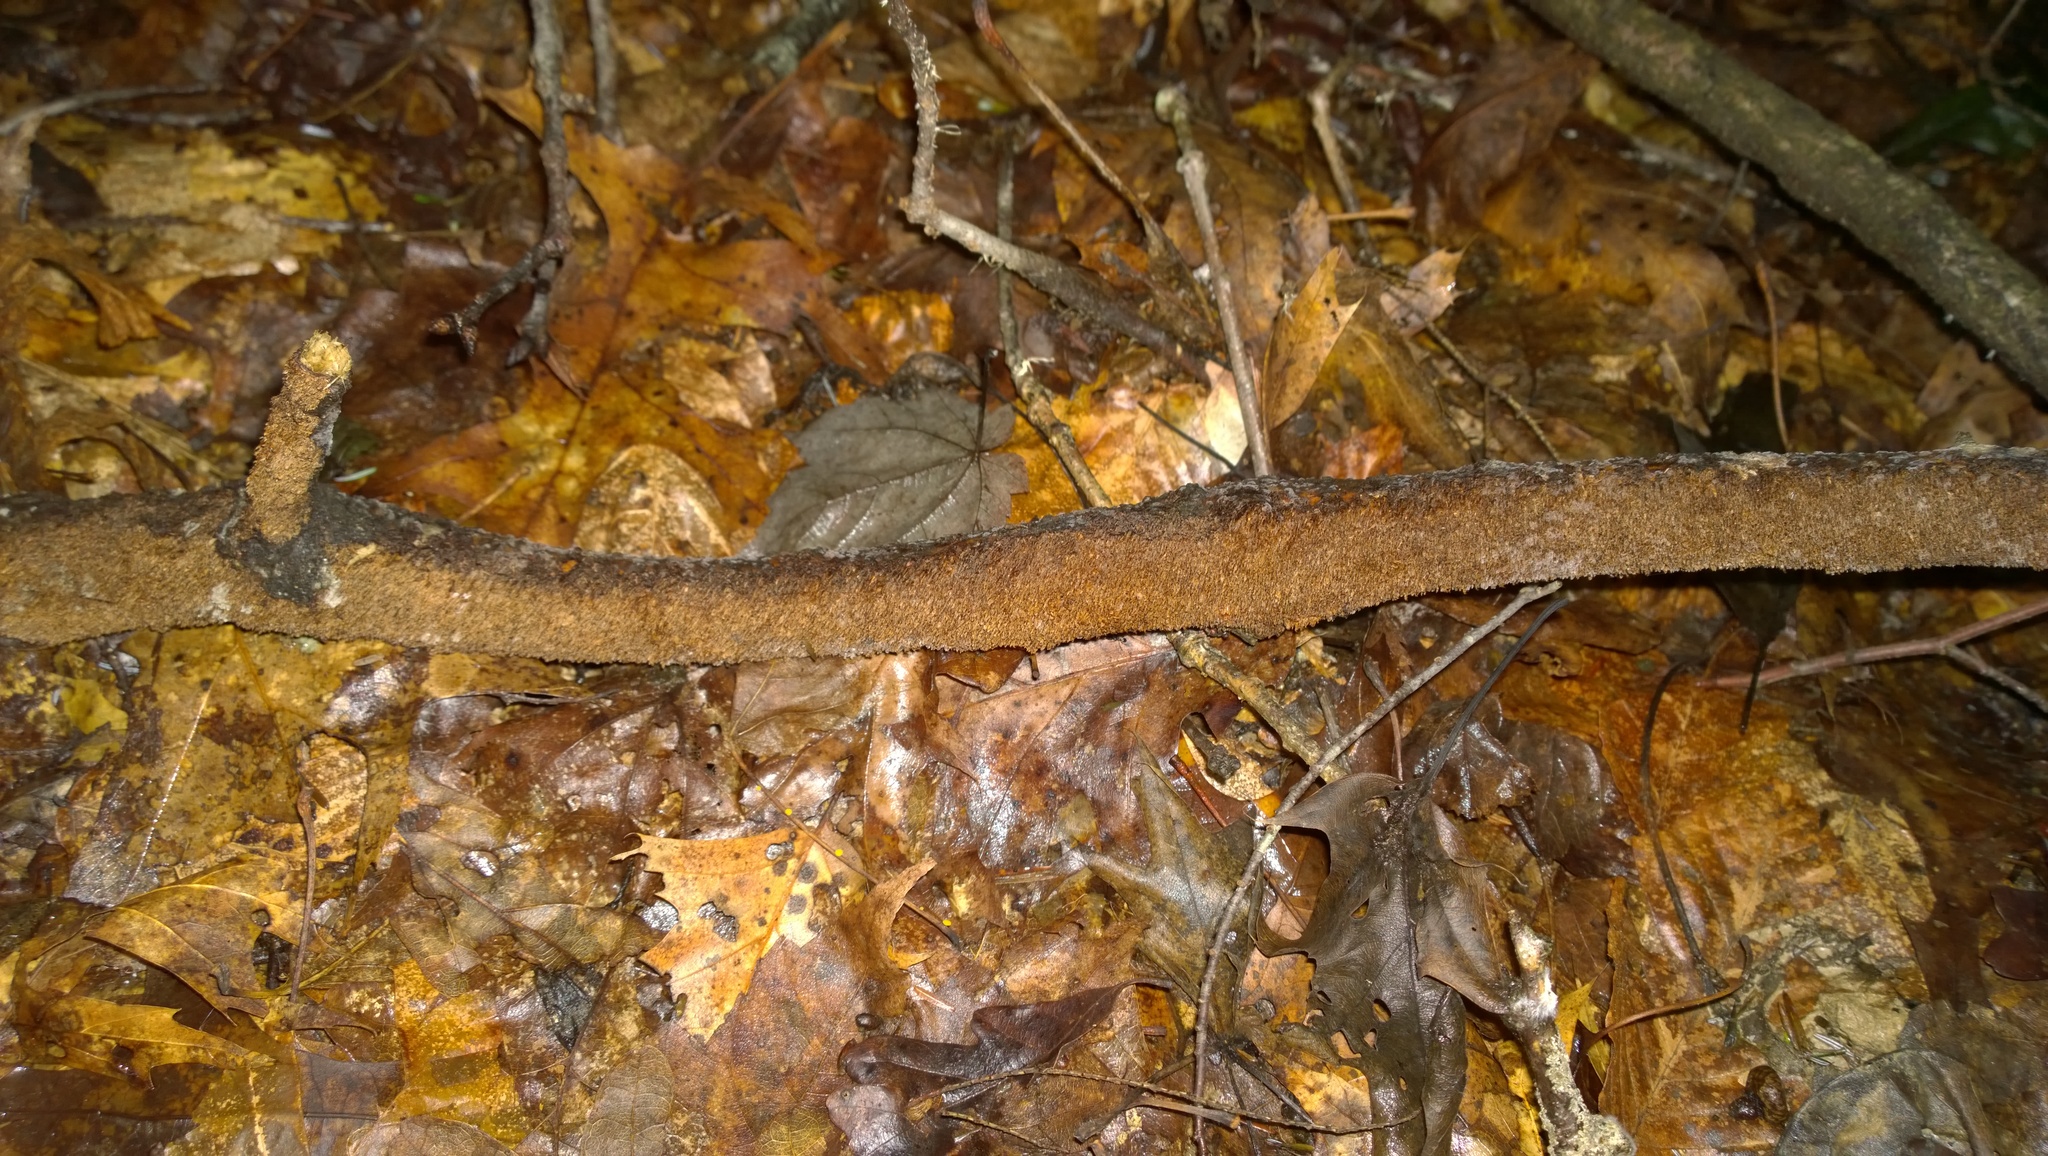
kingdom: Fungi
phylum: Basidiomycota
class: Agaricomycetes
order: Hymenochaetales
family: Hymenochaetaceae
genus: Hydnoporia
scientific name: Hydnoporia olivacea
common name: Brown-toothed crust fungus
